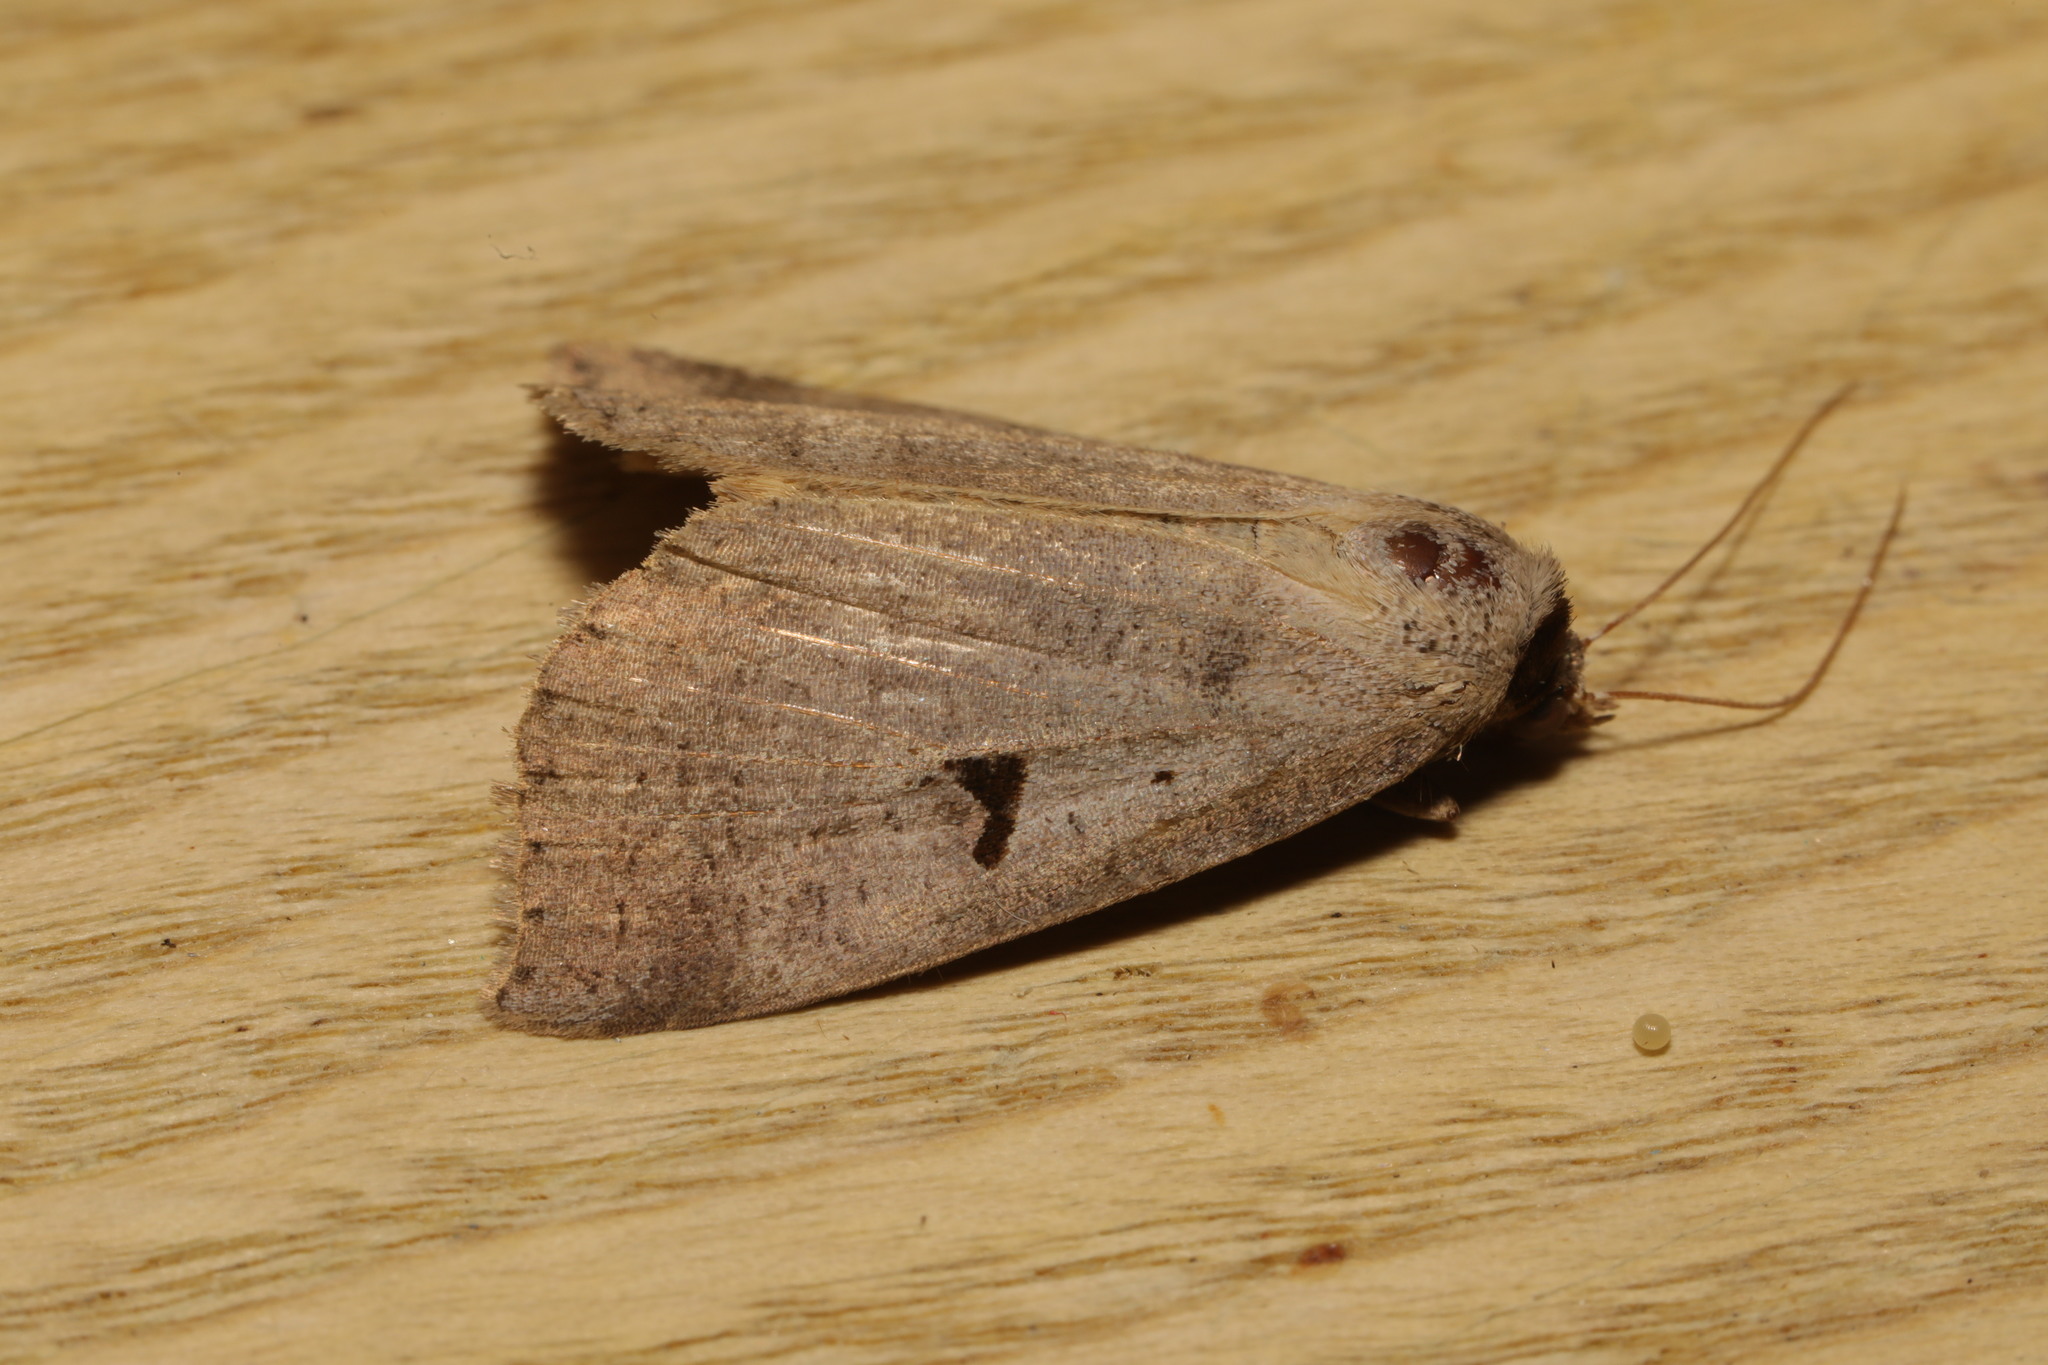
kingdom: Animalia
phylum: Arthropoda
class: Insecta
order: Lepidoptera
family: Erebidae
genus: Lygephila
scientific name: Lygephila pastinum
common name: Blackneck
